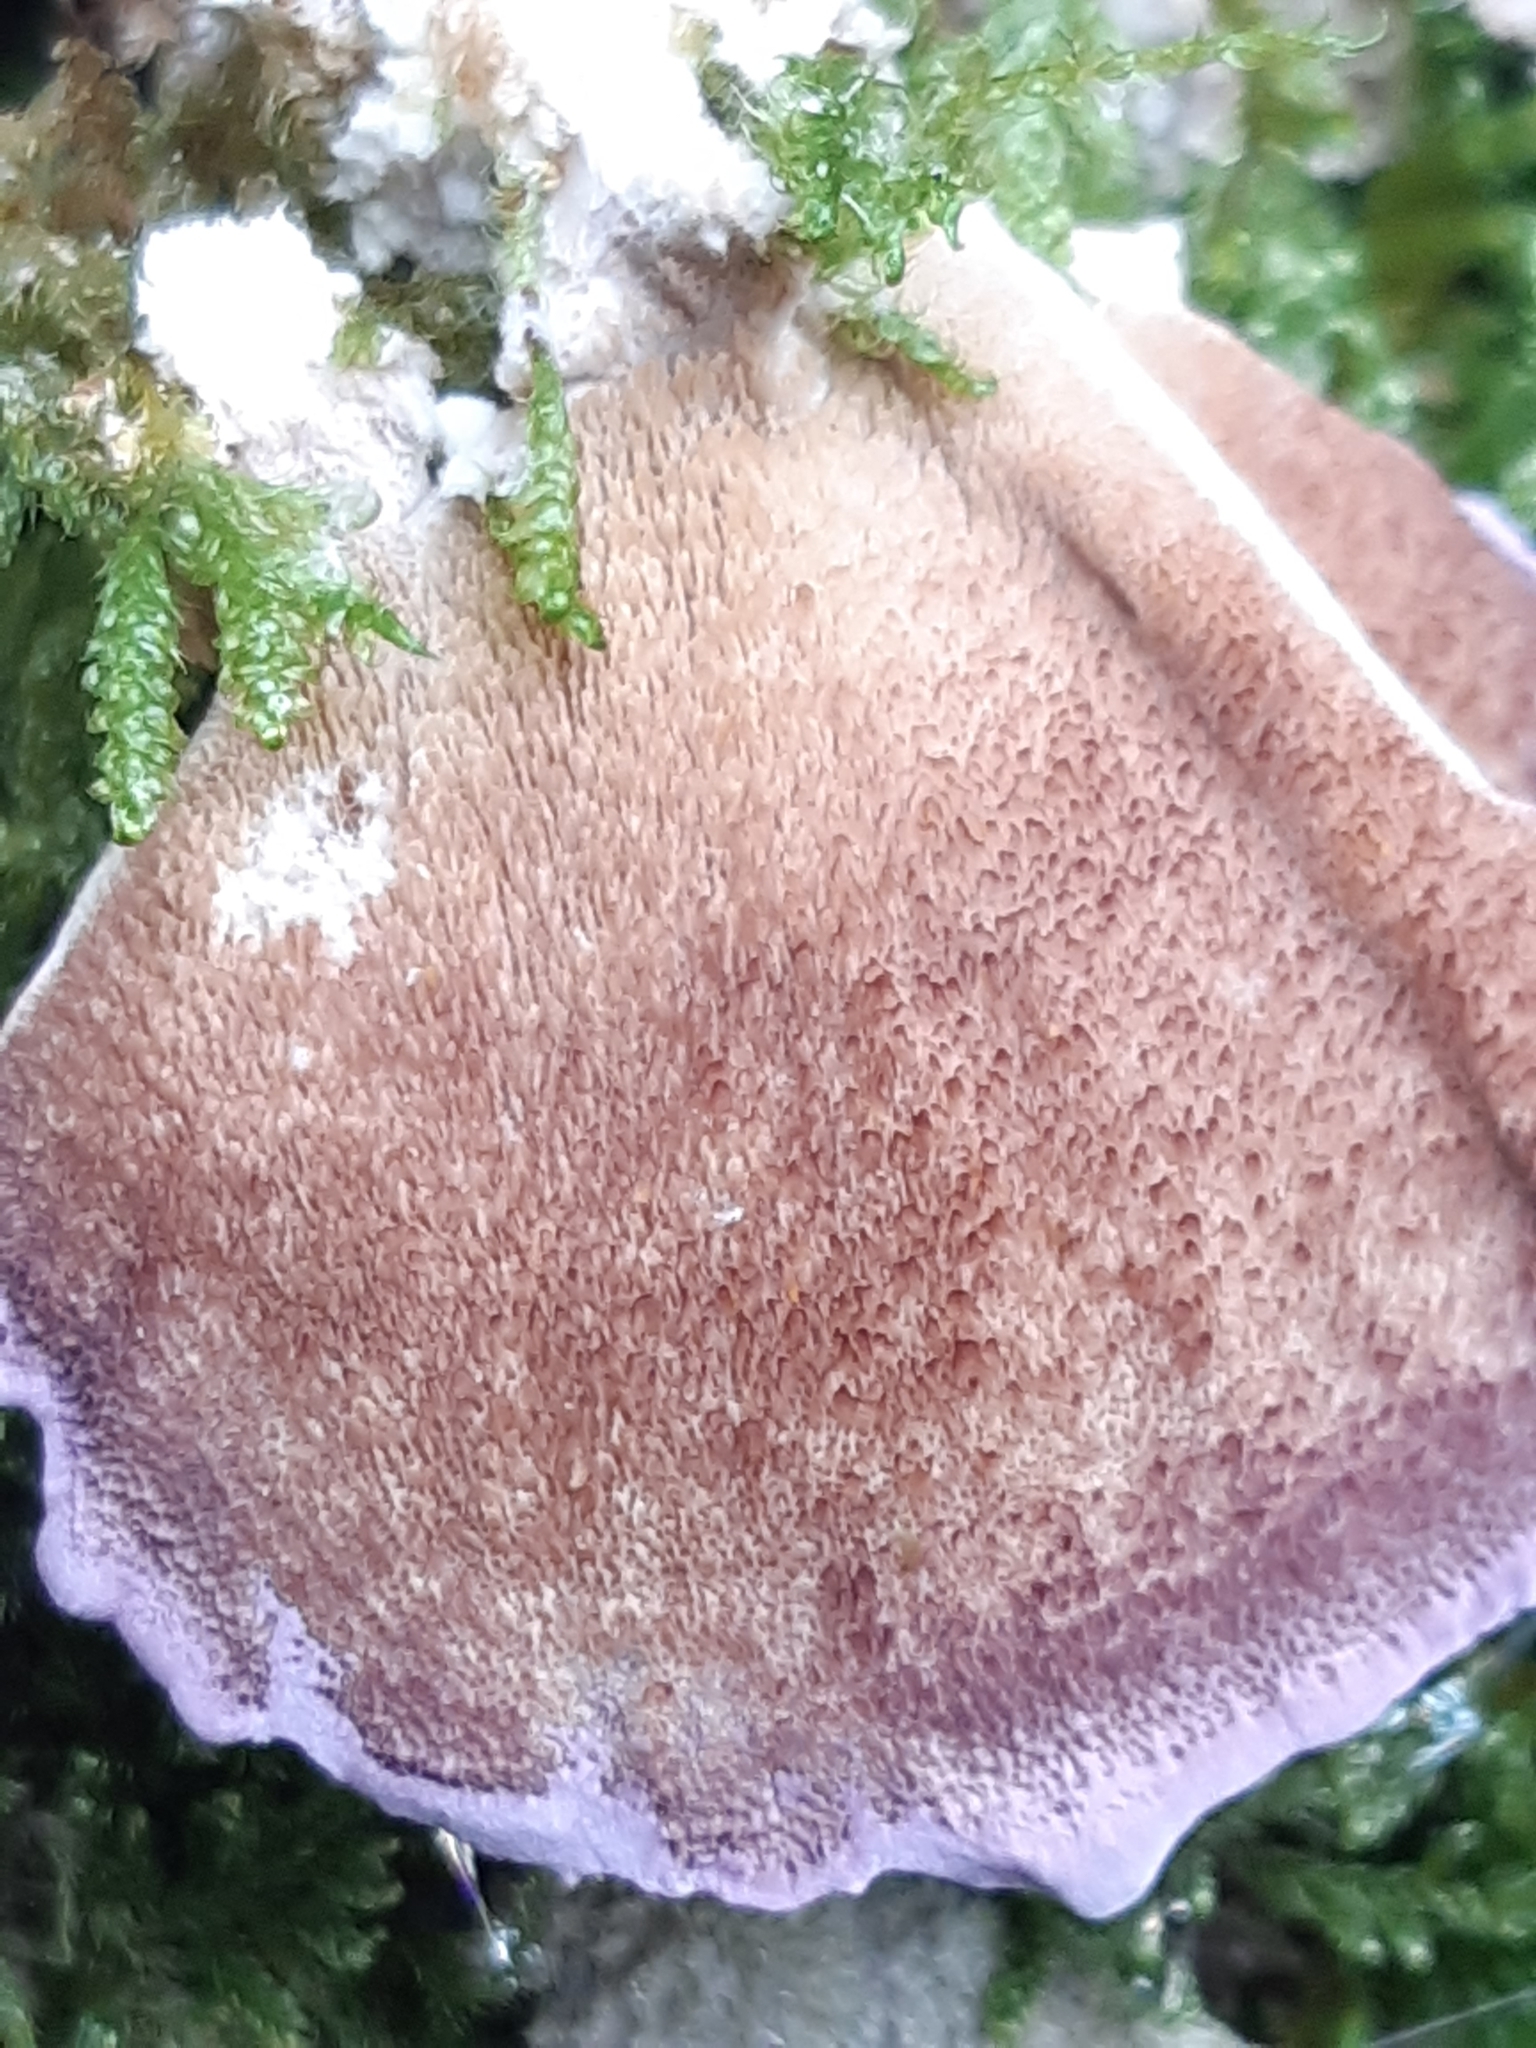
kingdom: Fungi
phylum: Basidiomycota
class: Agaricomycetes
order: Hymenochaetales
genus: Trichaptum
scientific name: Trichaptum biforme
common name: Violet-toothed polypore
